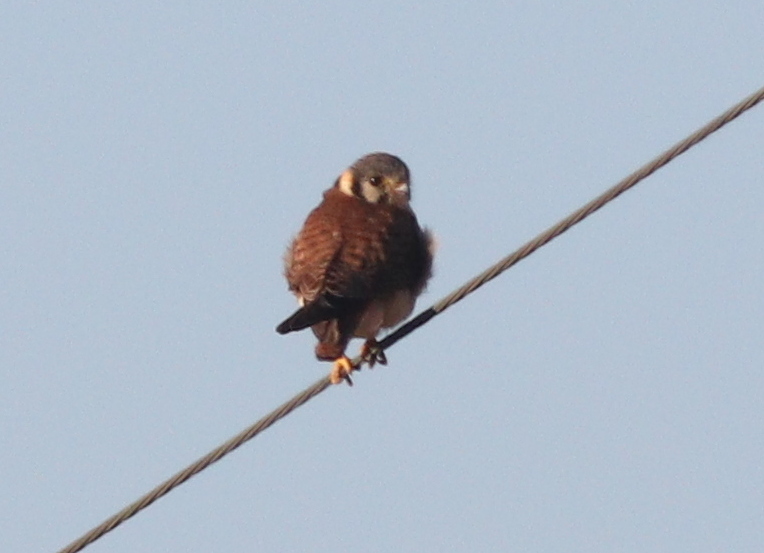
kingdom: Animalia
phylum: Chordata
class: Aves
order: Falconiformes
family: Falconidae
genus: Falco
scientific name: Falco sparverius
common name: American kestrel
